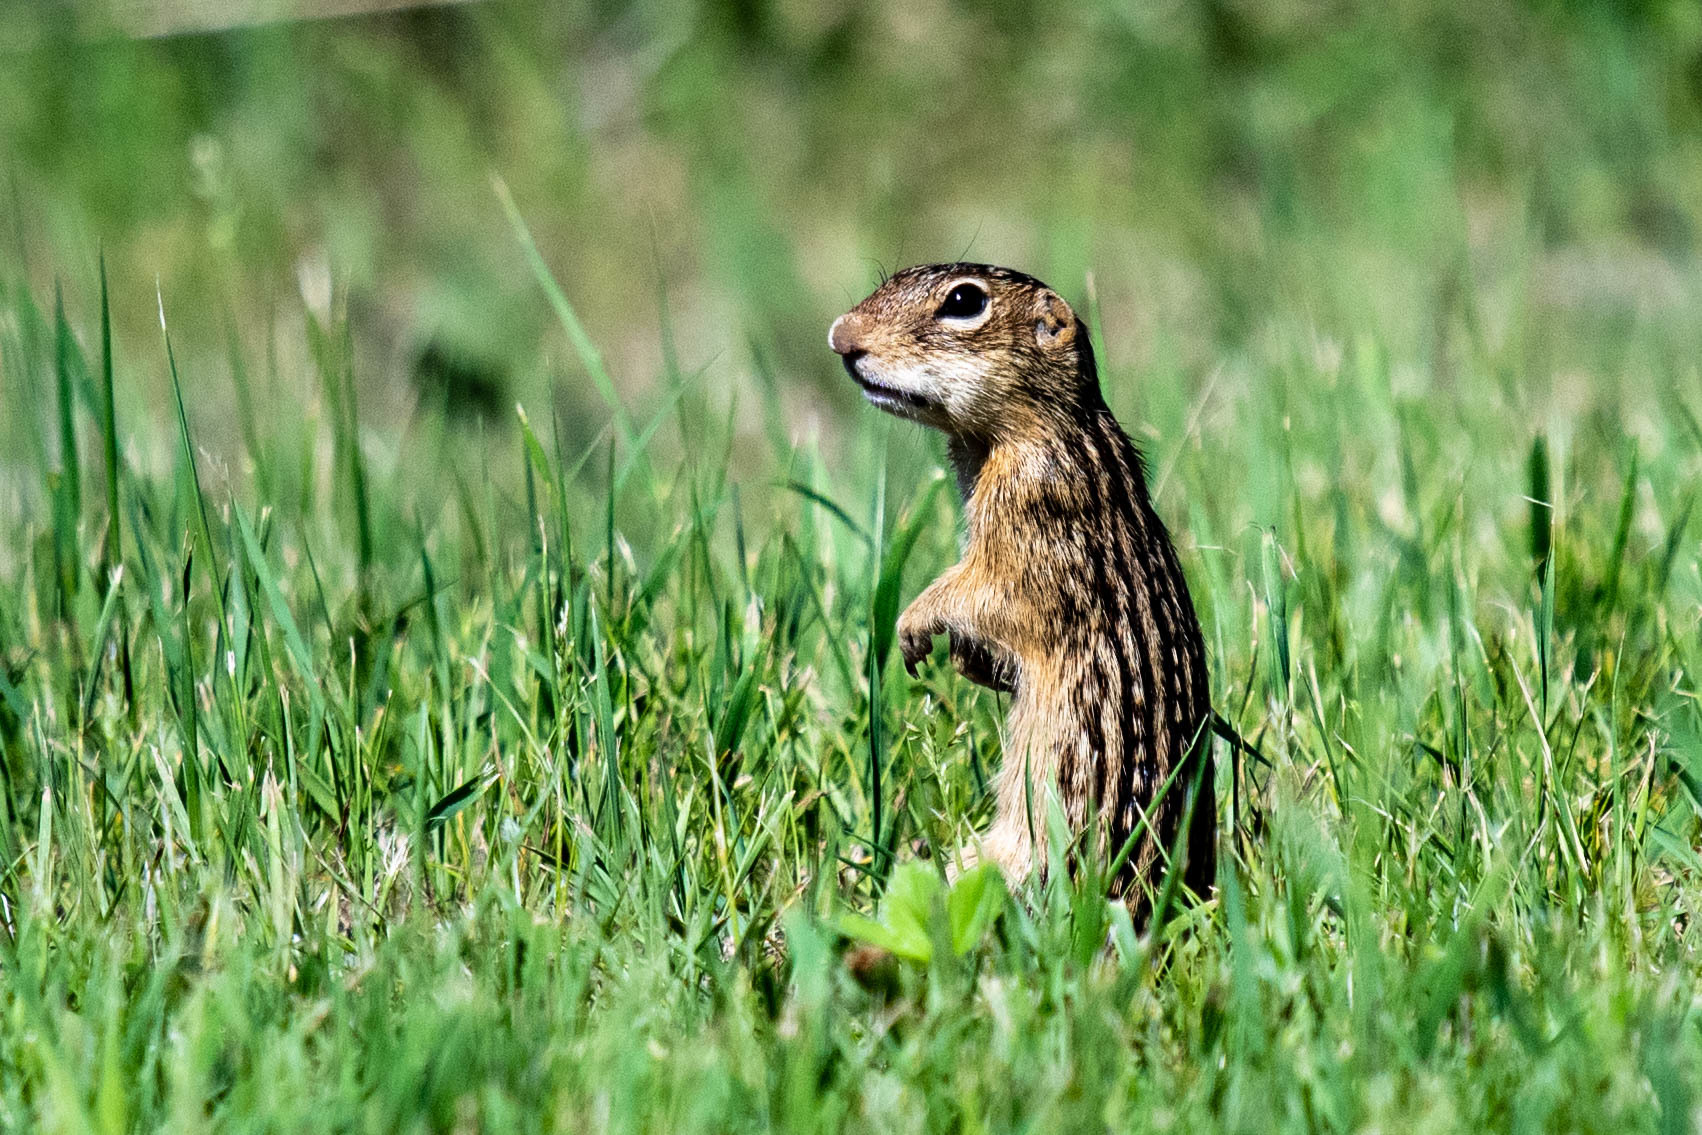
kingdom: Animalia
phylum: Chordata
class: Mammalia
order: Rodentia
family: Sciuridae
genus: Ictidomys
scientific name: Ictidomys tridecemlineatus
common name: Thirteen-lined ground squirrel
